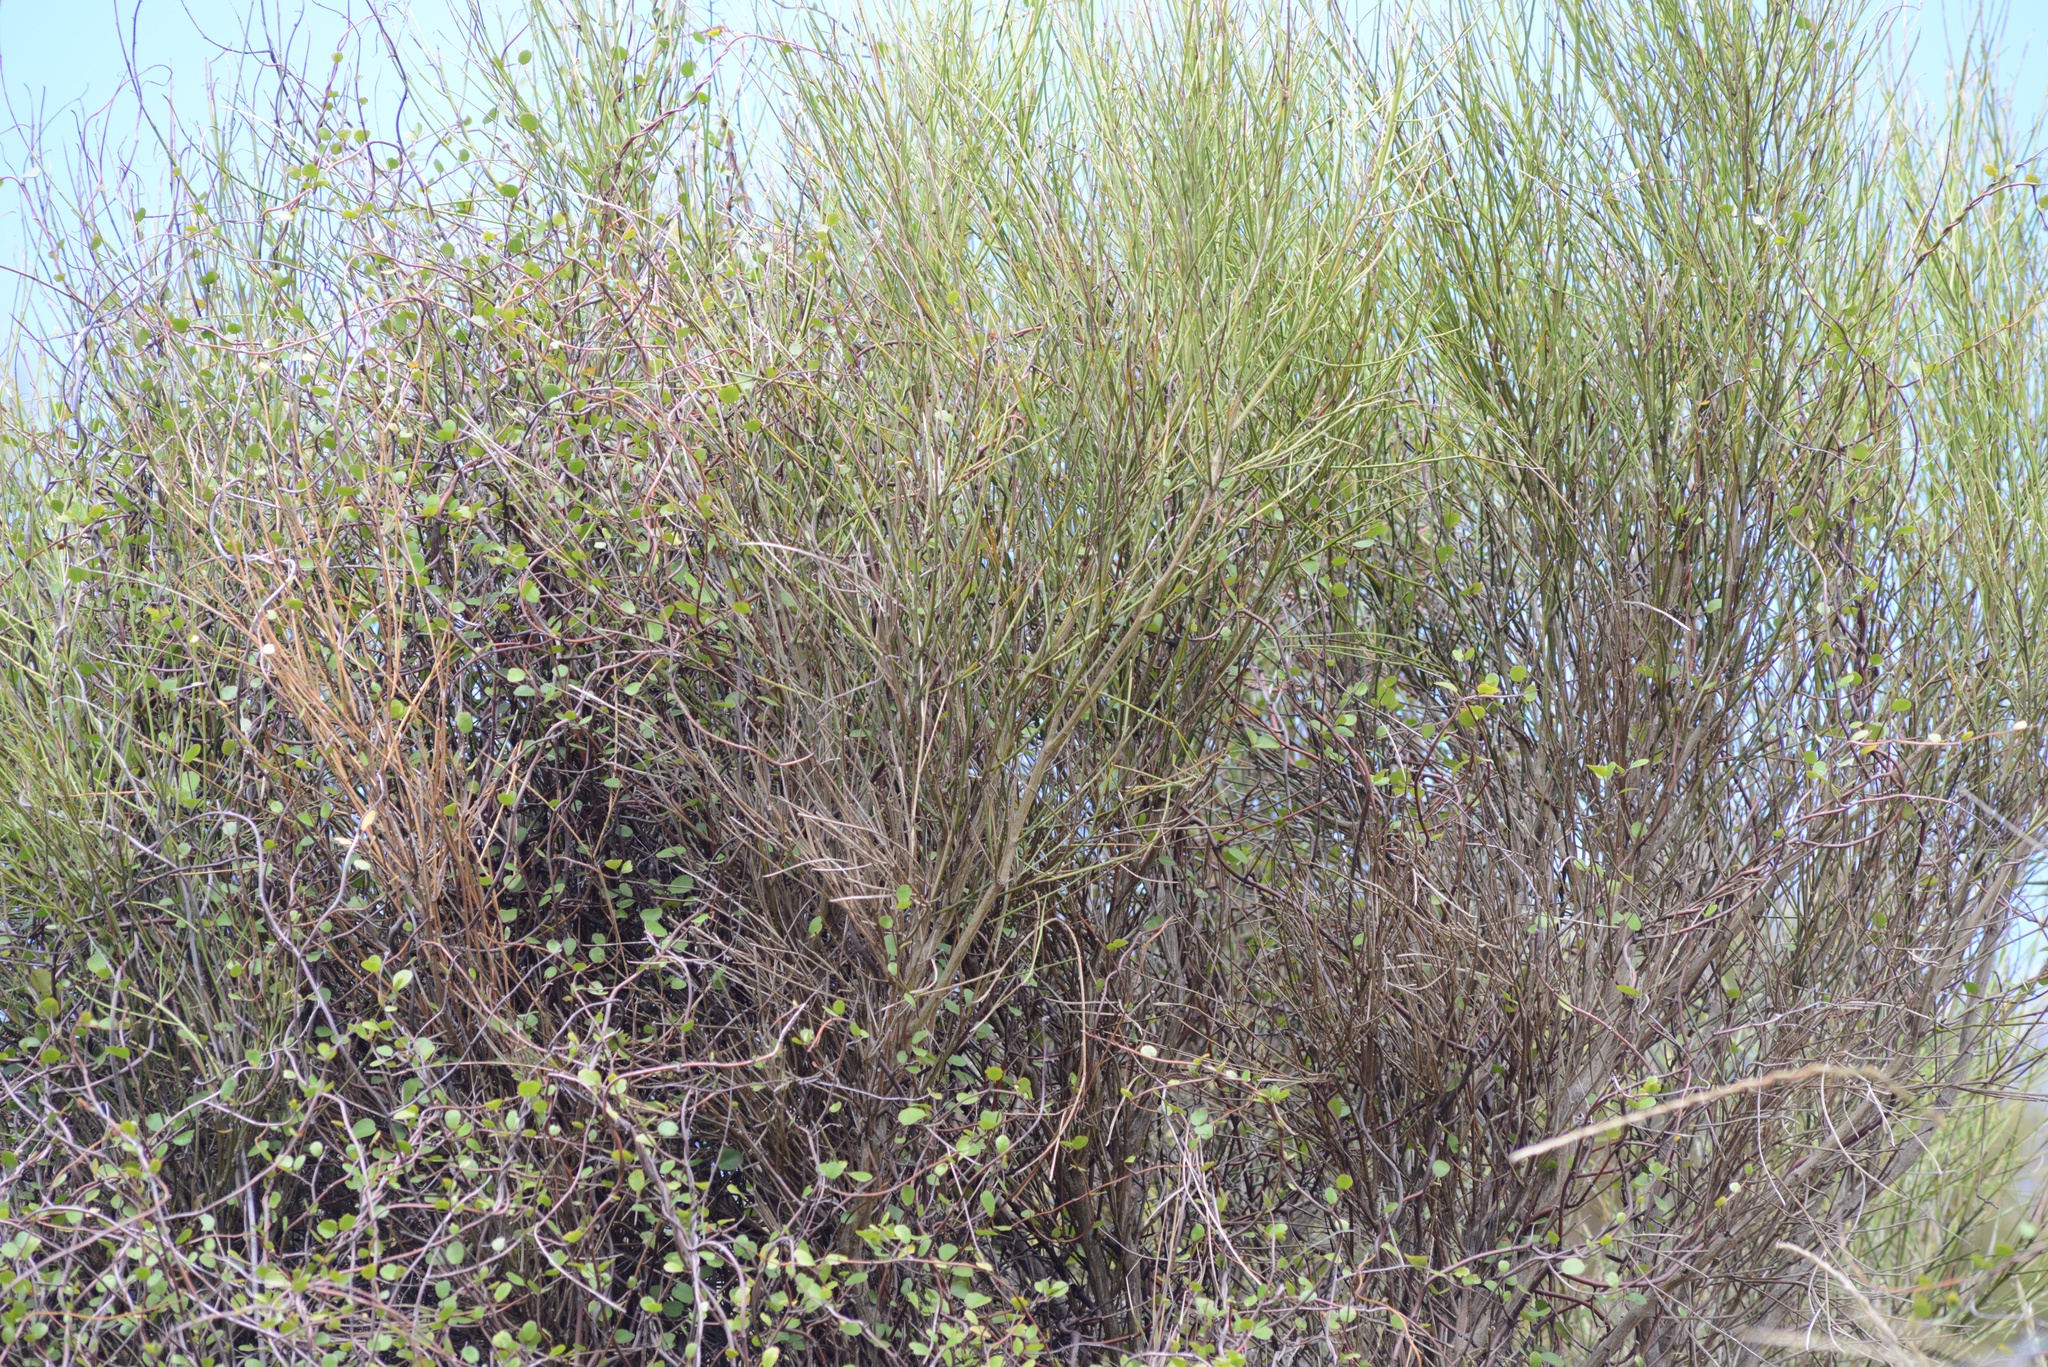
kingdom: Plantae
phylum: Tracheophyta
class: Magnoliopsida
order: Fabales
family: Fabaceae
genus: Carmichaelia
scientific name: Carmichaelia australis
